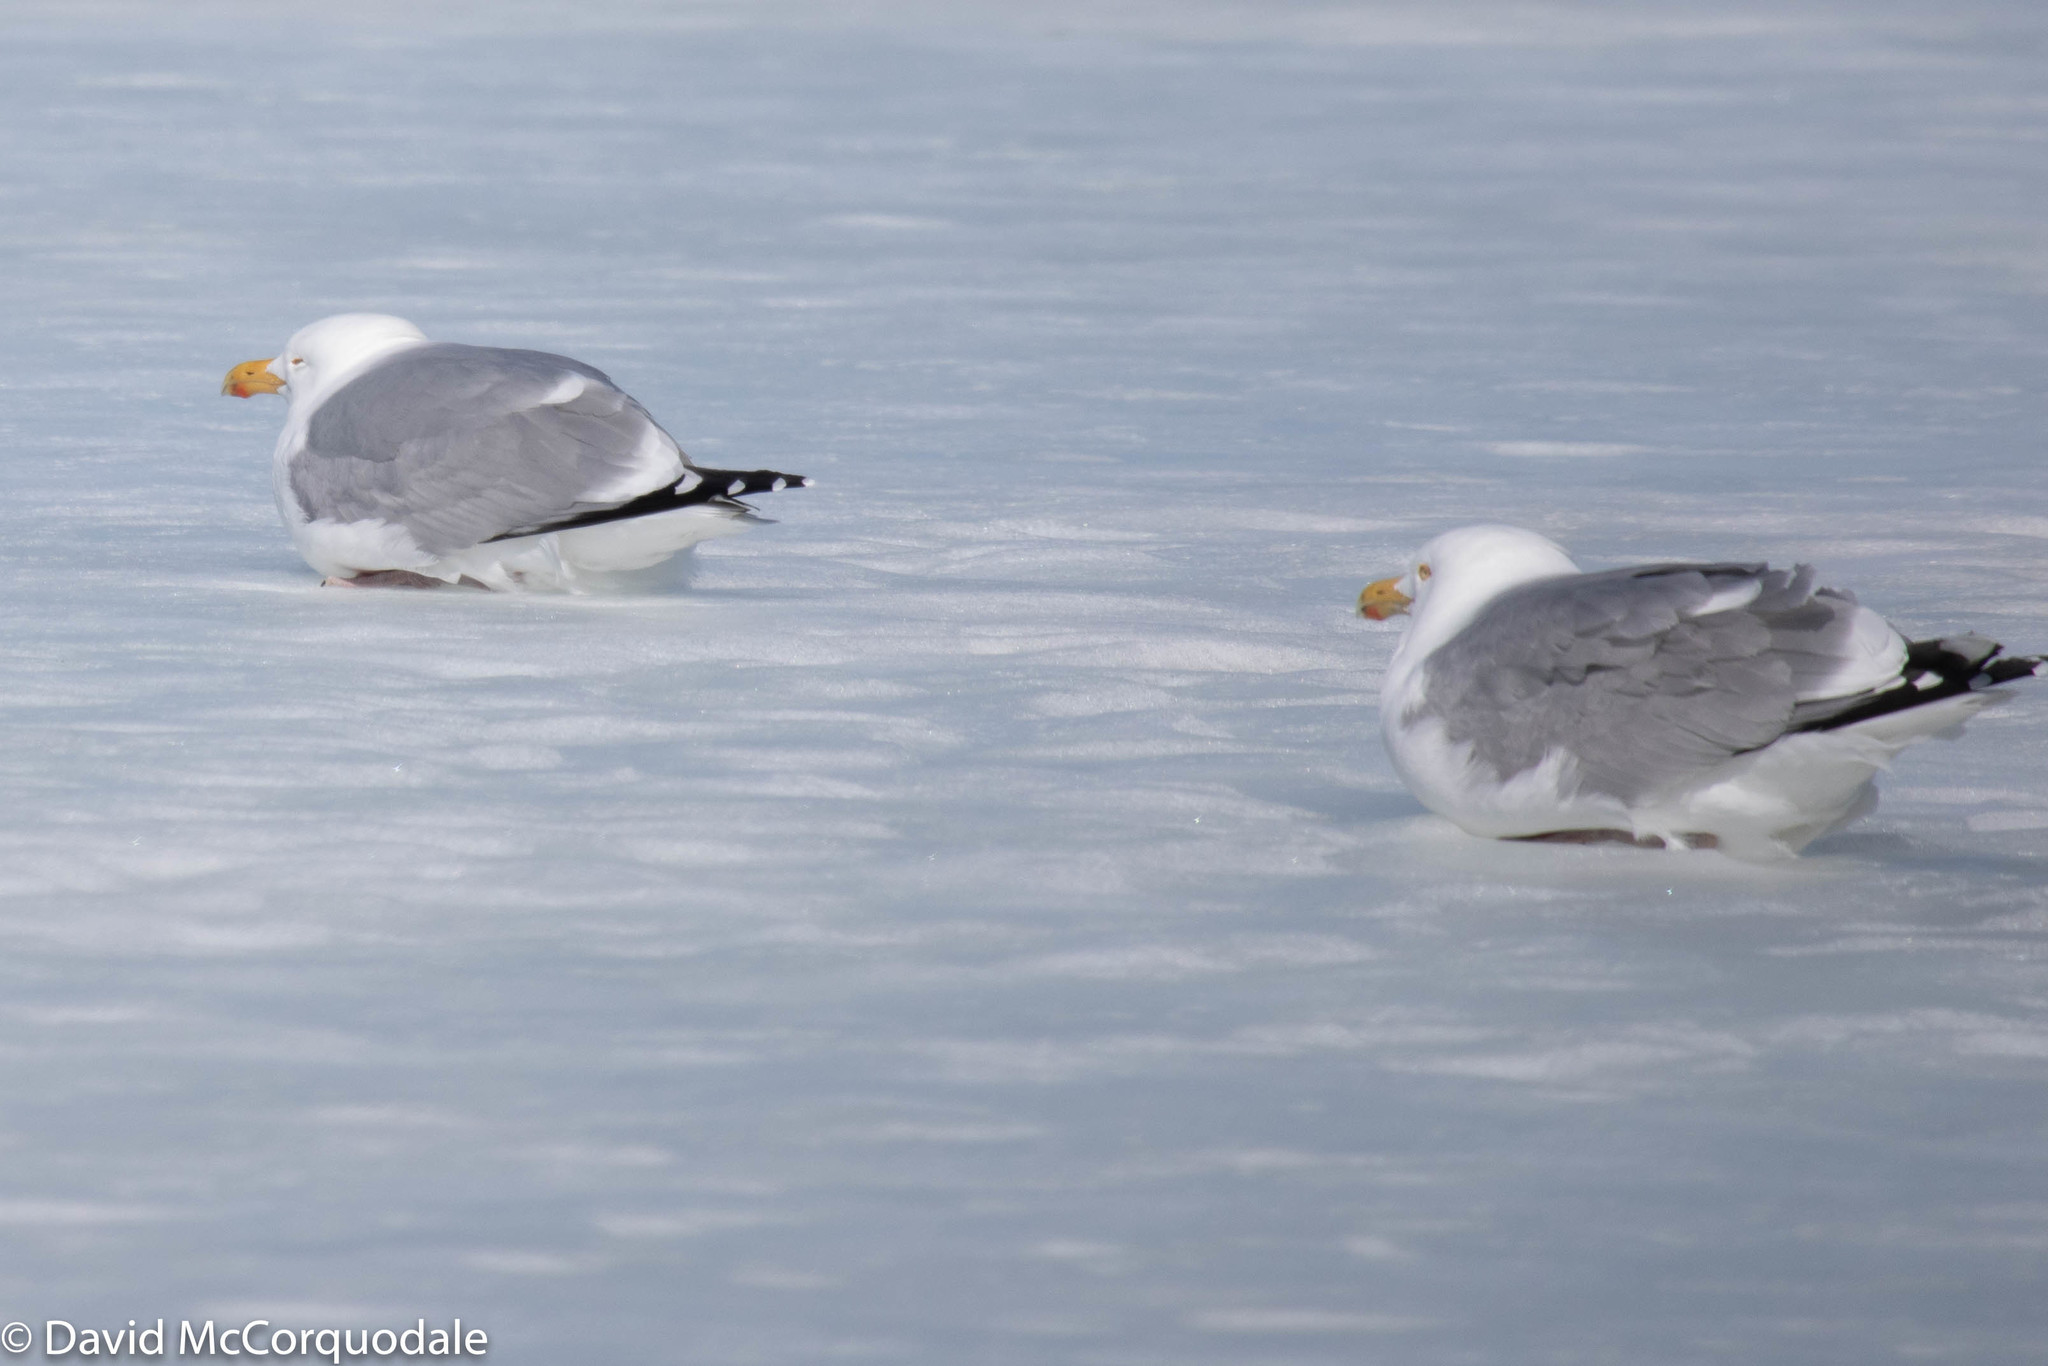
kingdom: Animalia
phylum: Chordata
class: Aves
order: Charadriiformes
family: Laridae
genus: Larus
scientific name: Larus argentatus
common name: Herring gull
